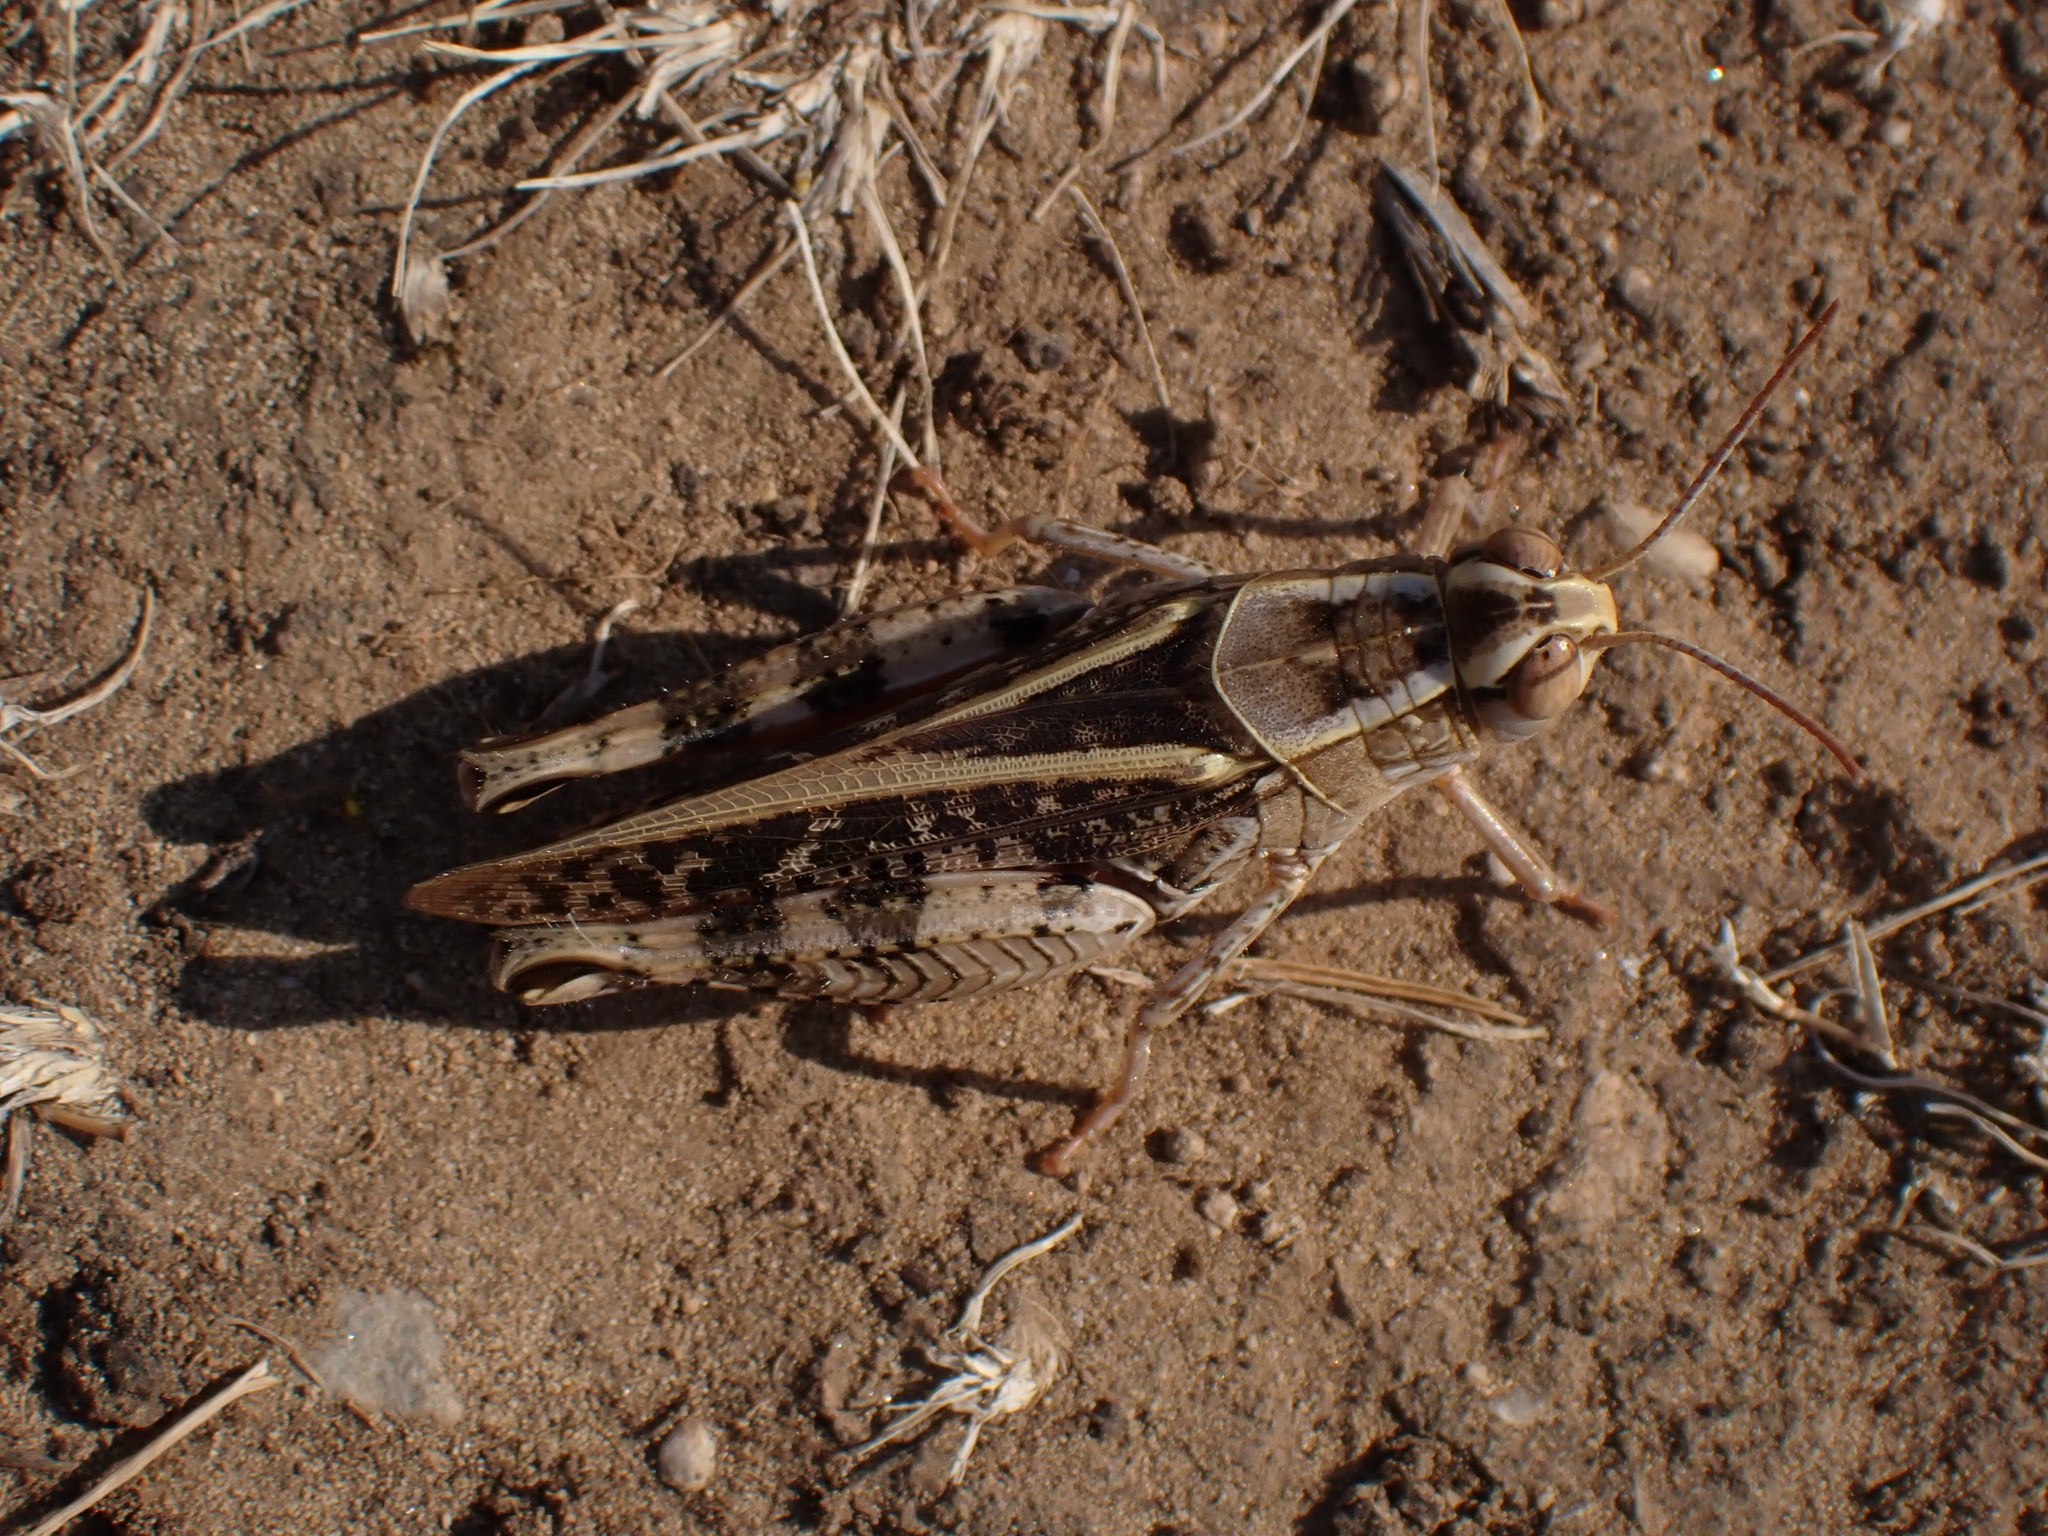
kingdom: Animalia
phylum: Arthropoda
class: Insecta
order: Orthoptera
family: Acrididae
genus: Calliptamus
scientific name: Calliptamus italicus
